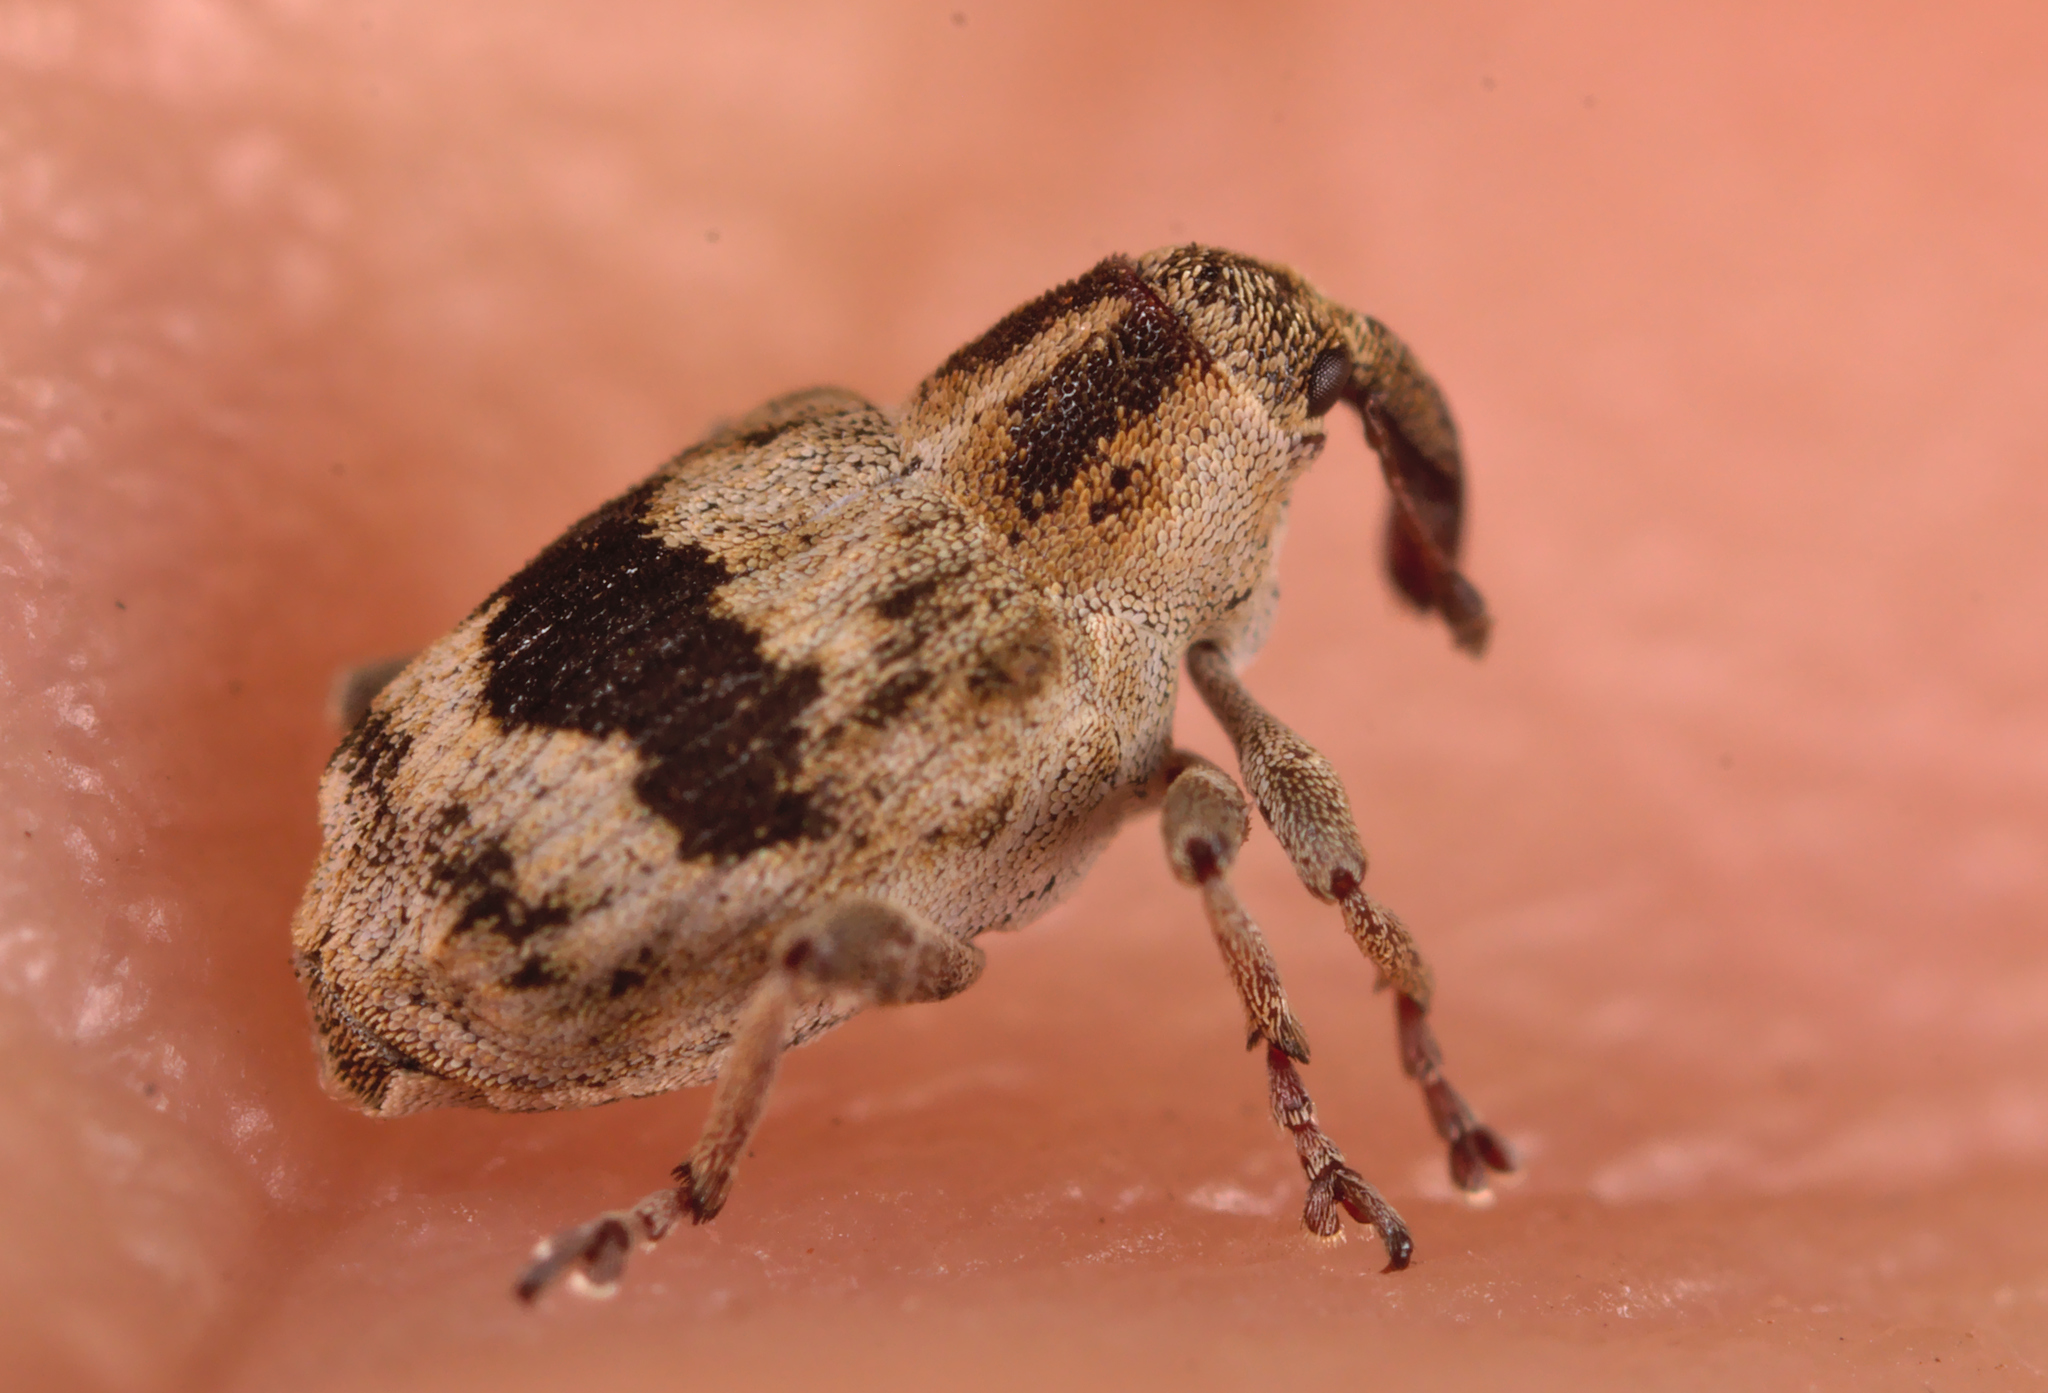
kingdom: Animalia
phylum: Arthropoda
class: Insecta
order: Coleoptera
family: Curculionidae
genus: Tapinotus
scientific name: Tapinotus sellatus
